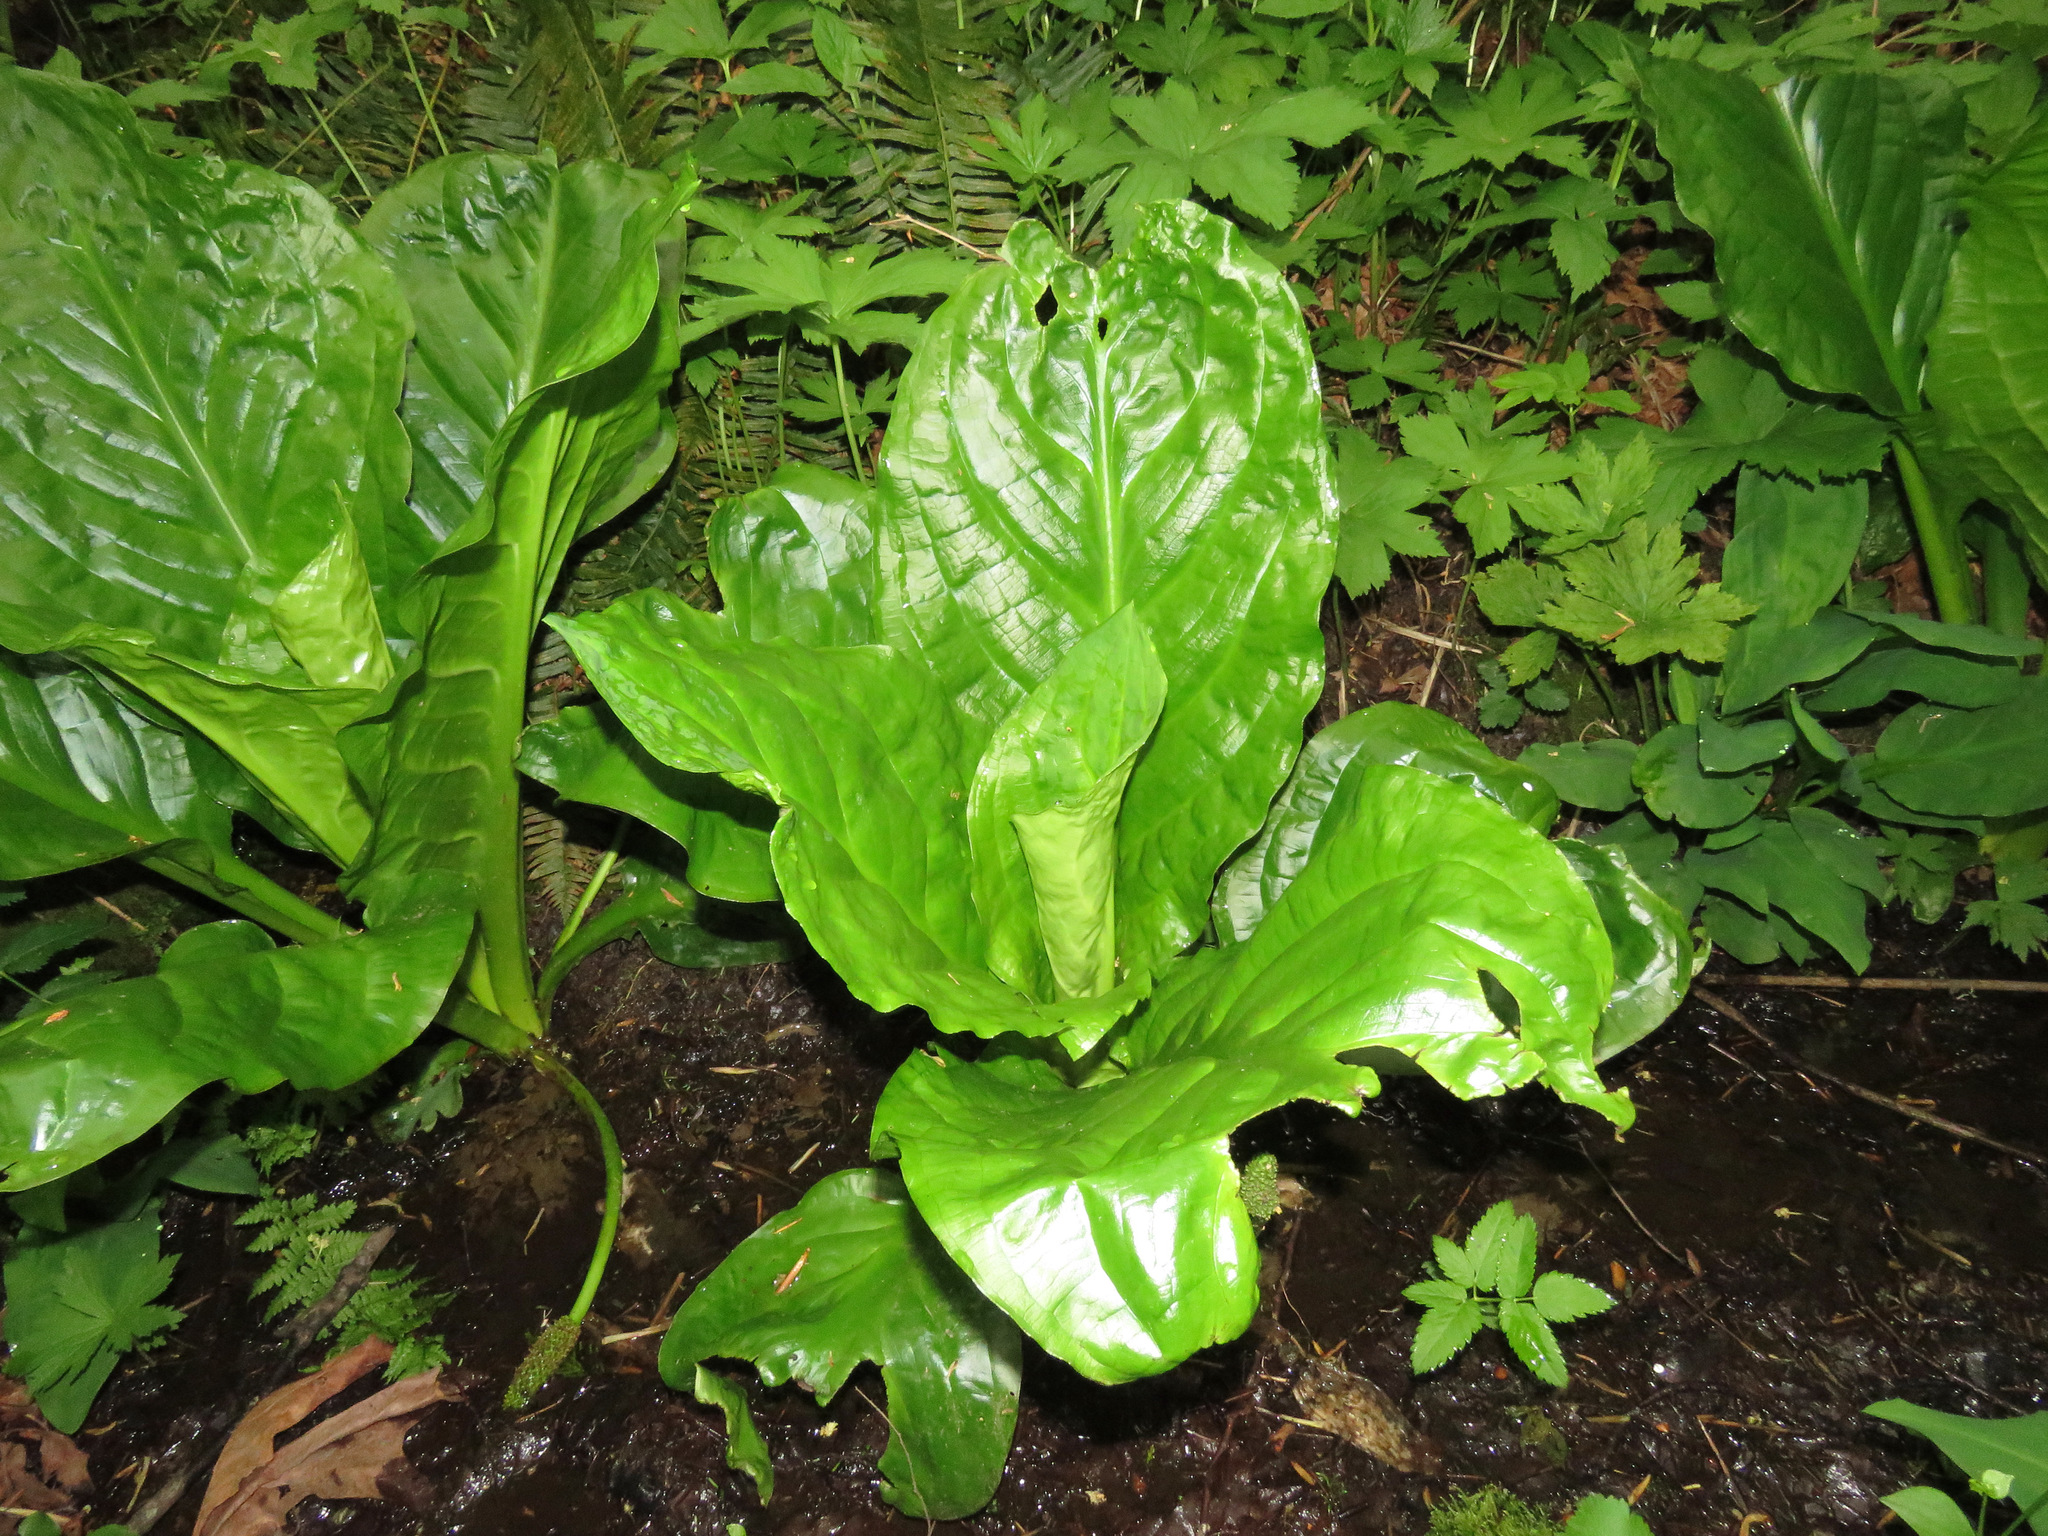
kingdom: Plantae
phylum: Tracheophyta
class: Liliopsida
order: Alismatales
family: Araceae
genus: Lysichiton
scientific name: Lysichiton americanus
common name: American skunk cabbage
